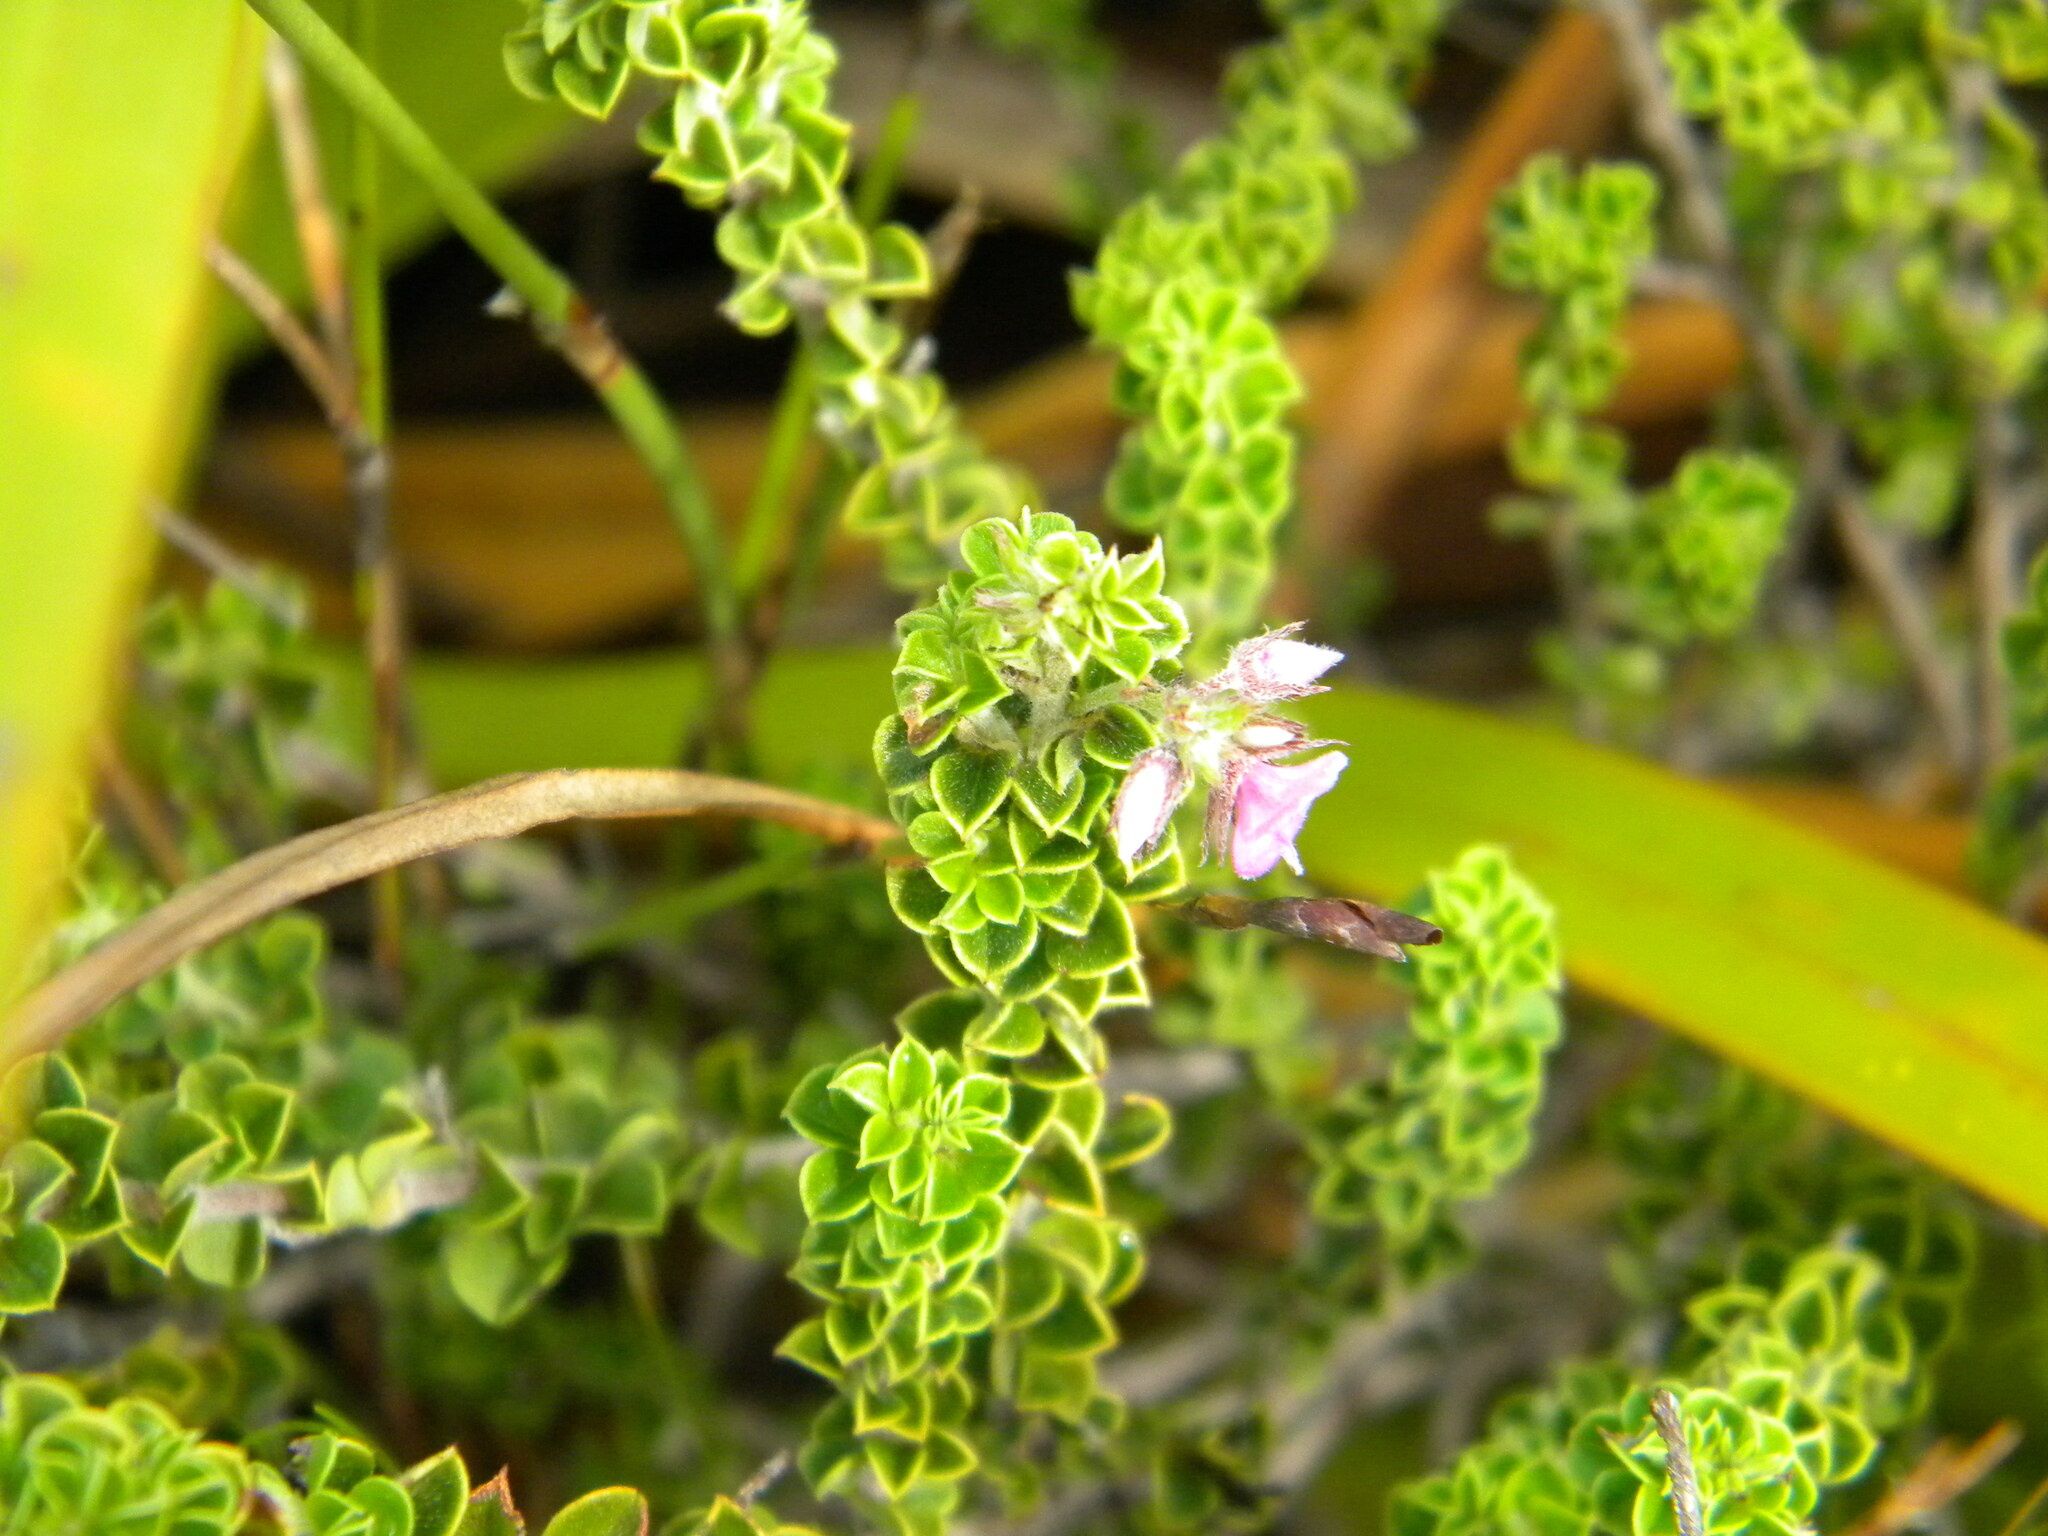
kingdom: Plantae
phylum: Tracheophyta
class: Magnoliopsida
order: Fabales
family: Fabaceae
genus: Indigofera
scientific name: Indigofera candolleana
